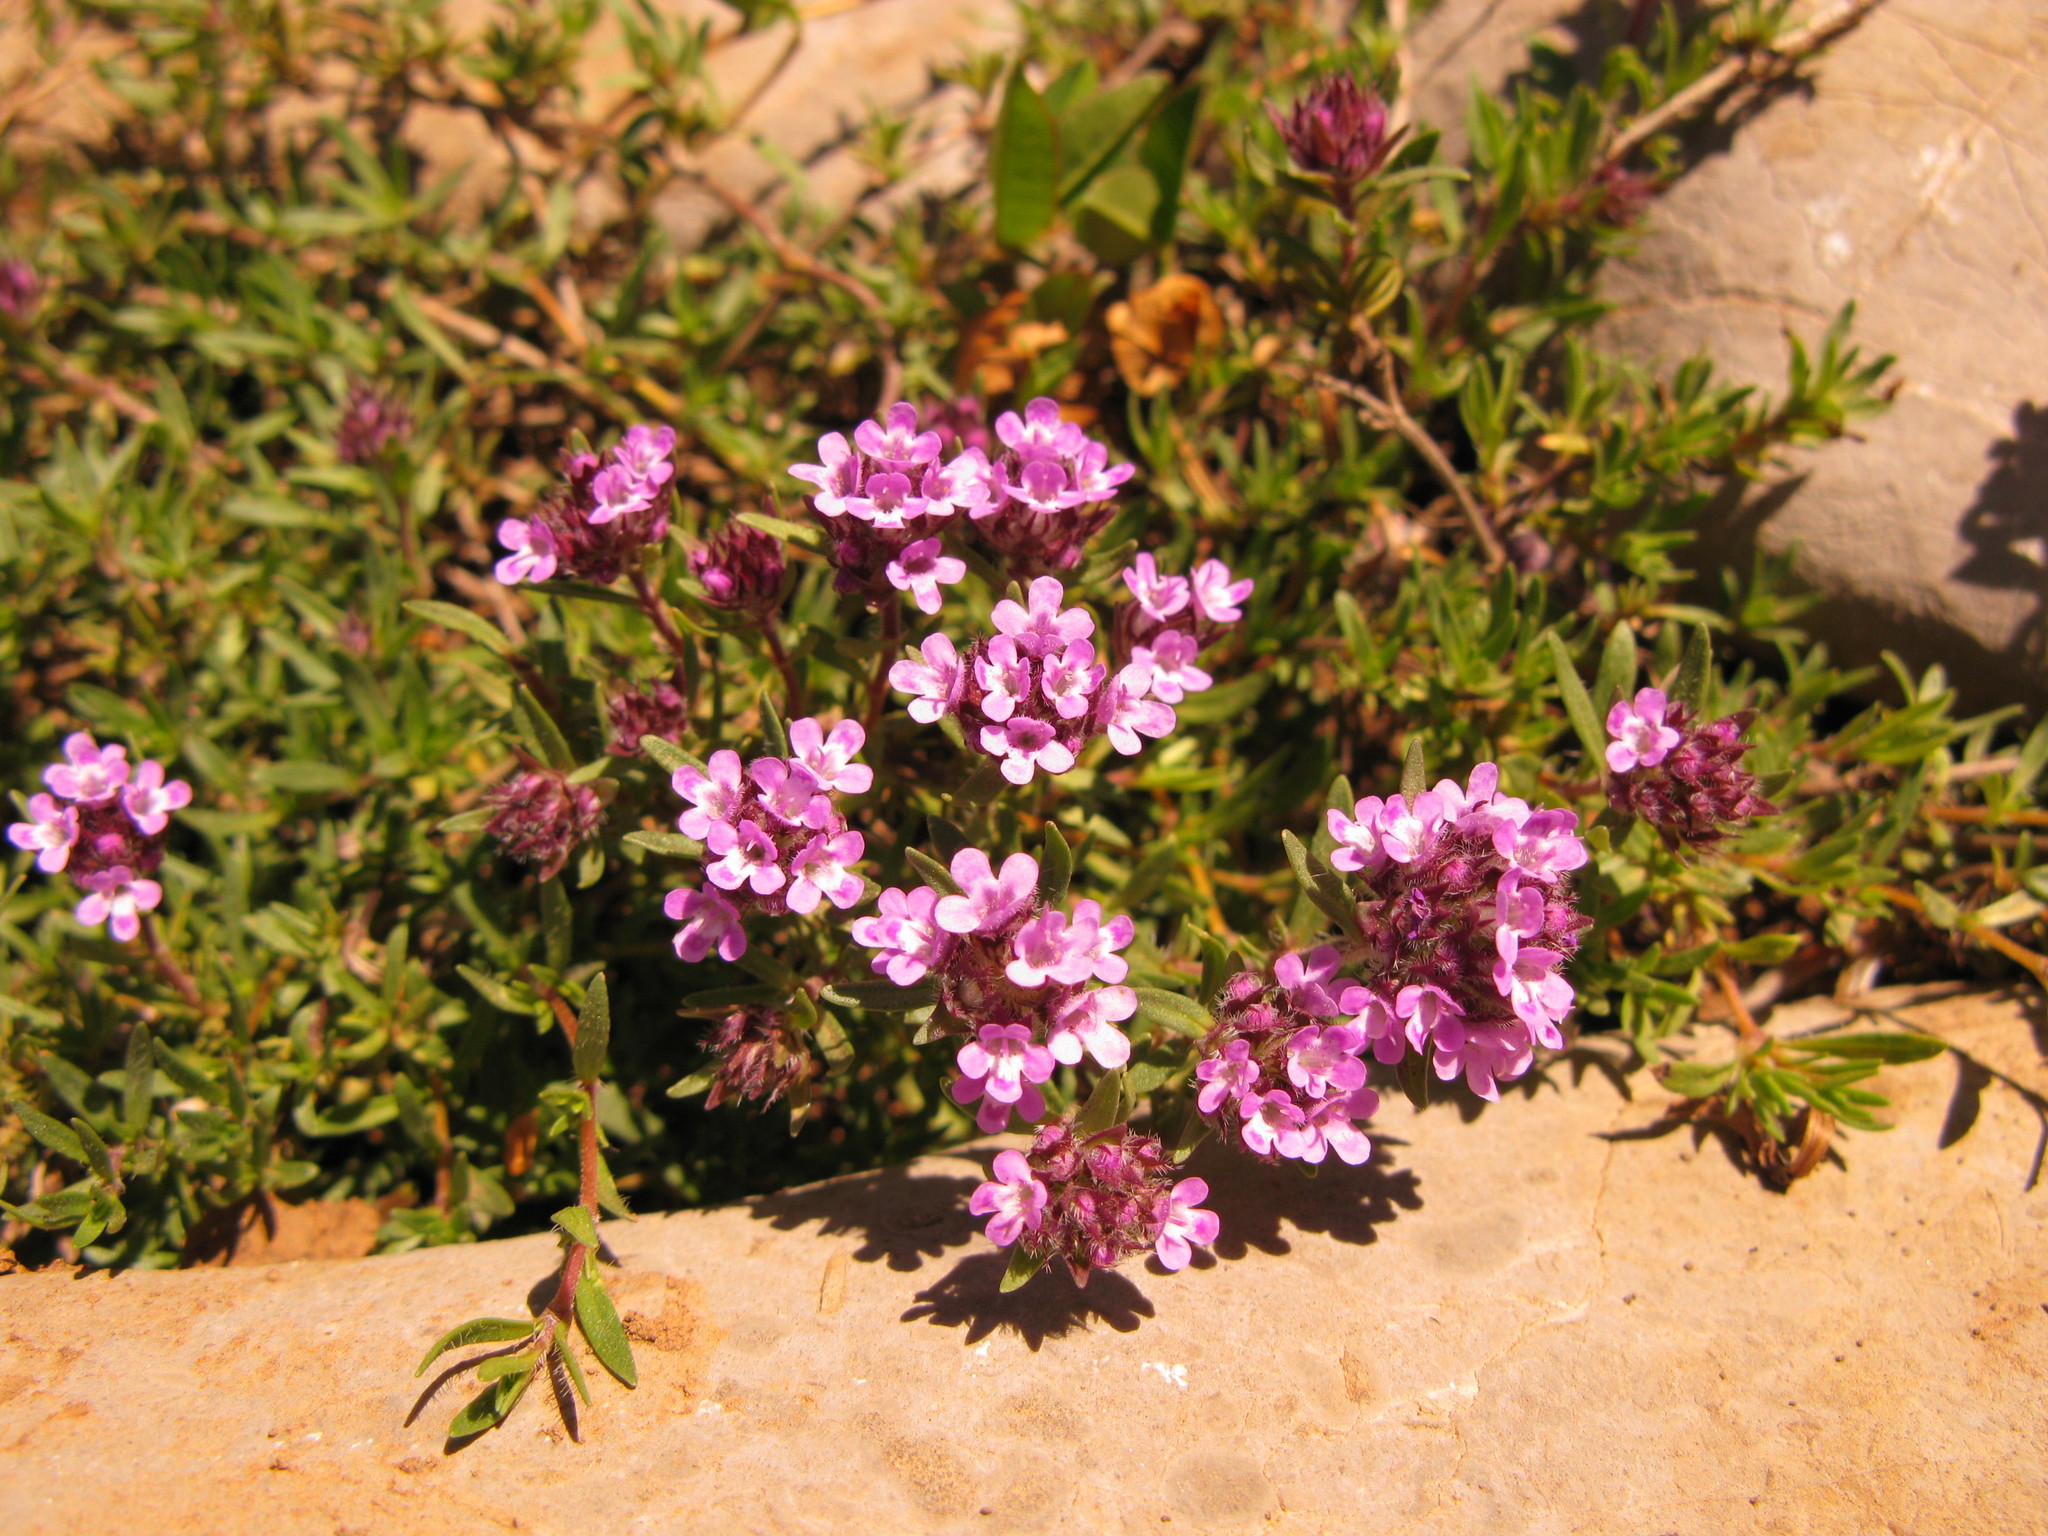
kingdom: Plantae
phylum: Tracheophyta
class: Magnoliopsida
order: Lamiales
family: Lamiaceae
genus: Thymus
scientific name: Thymus callieri
